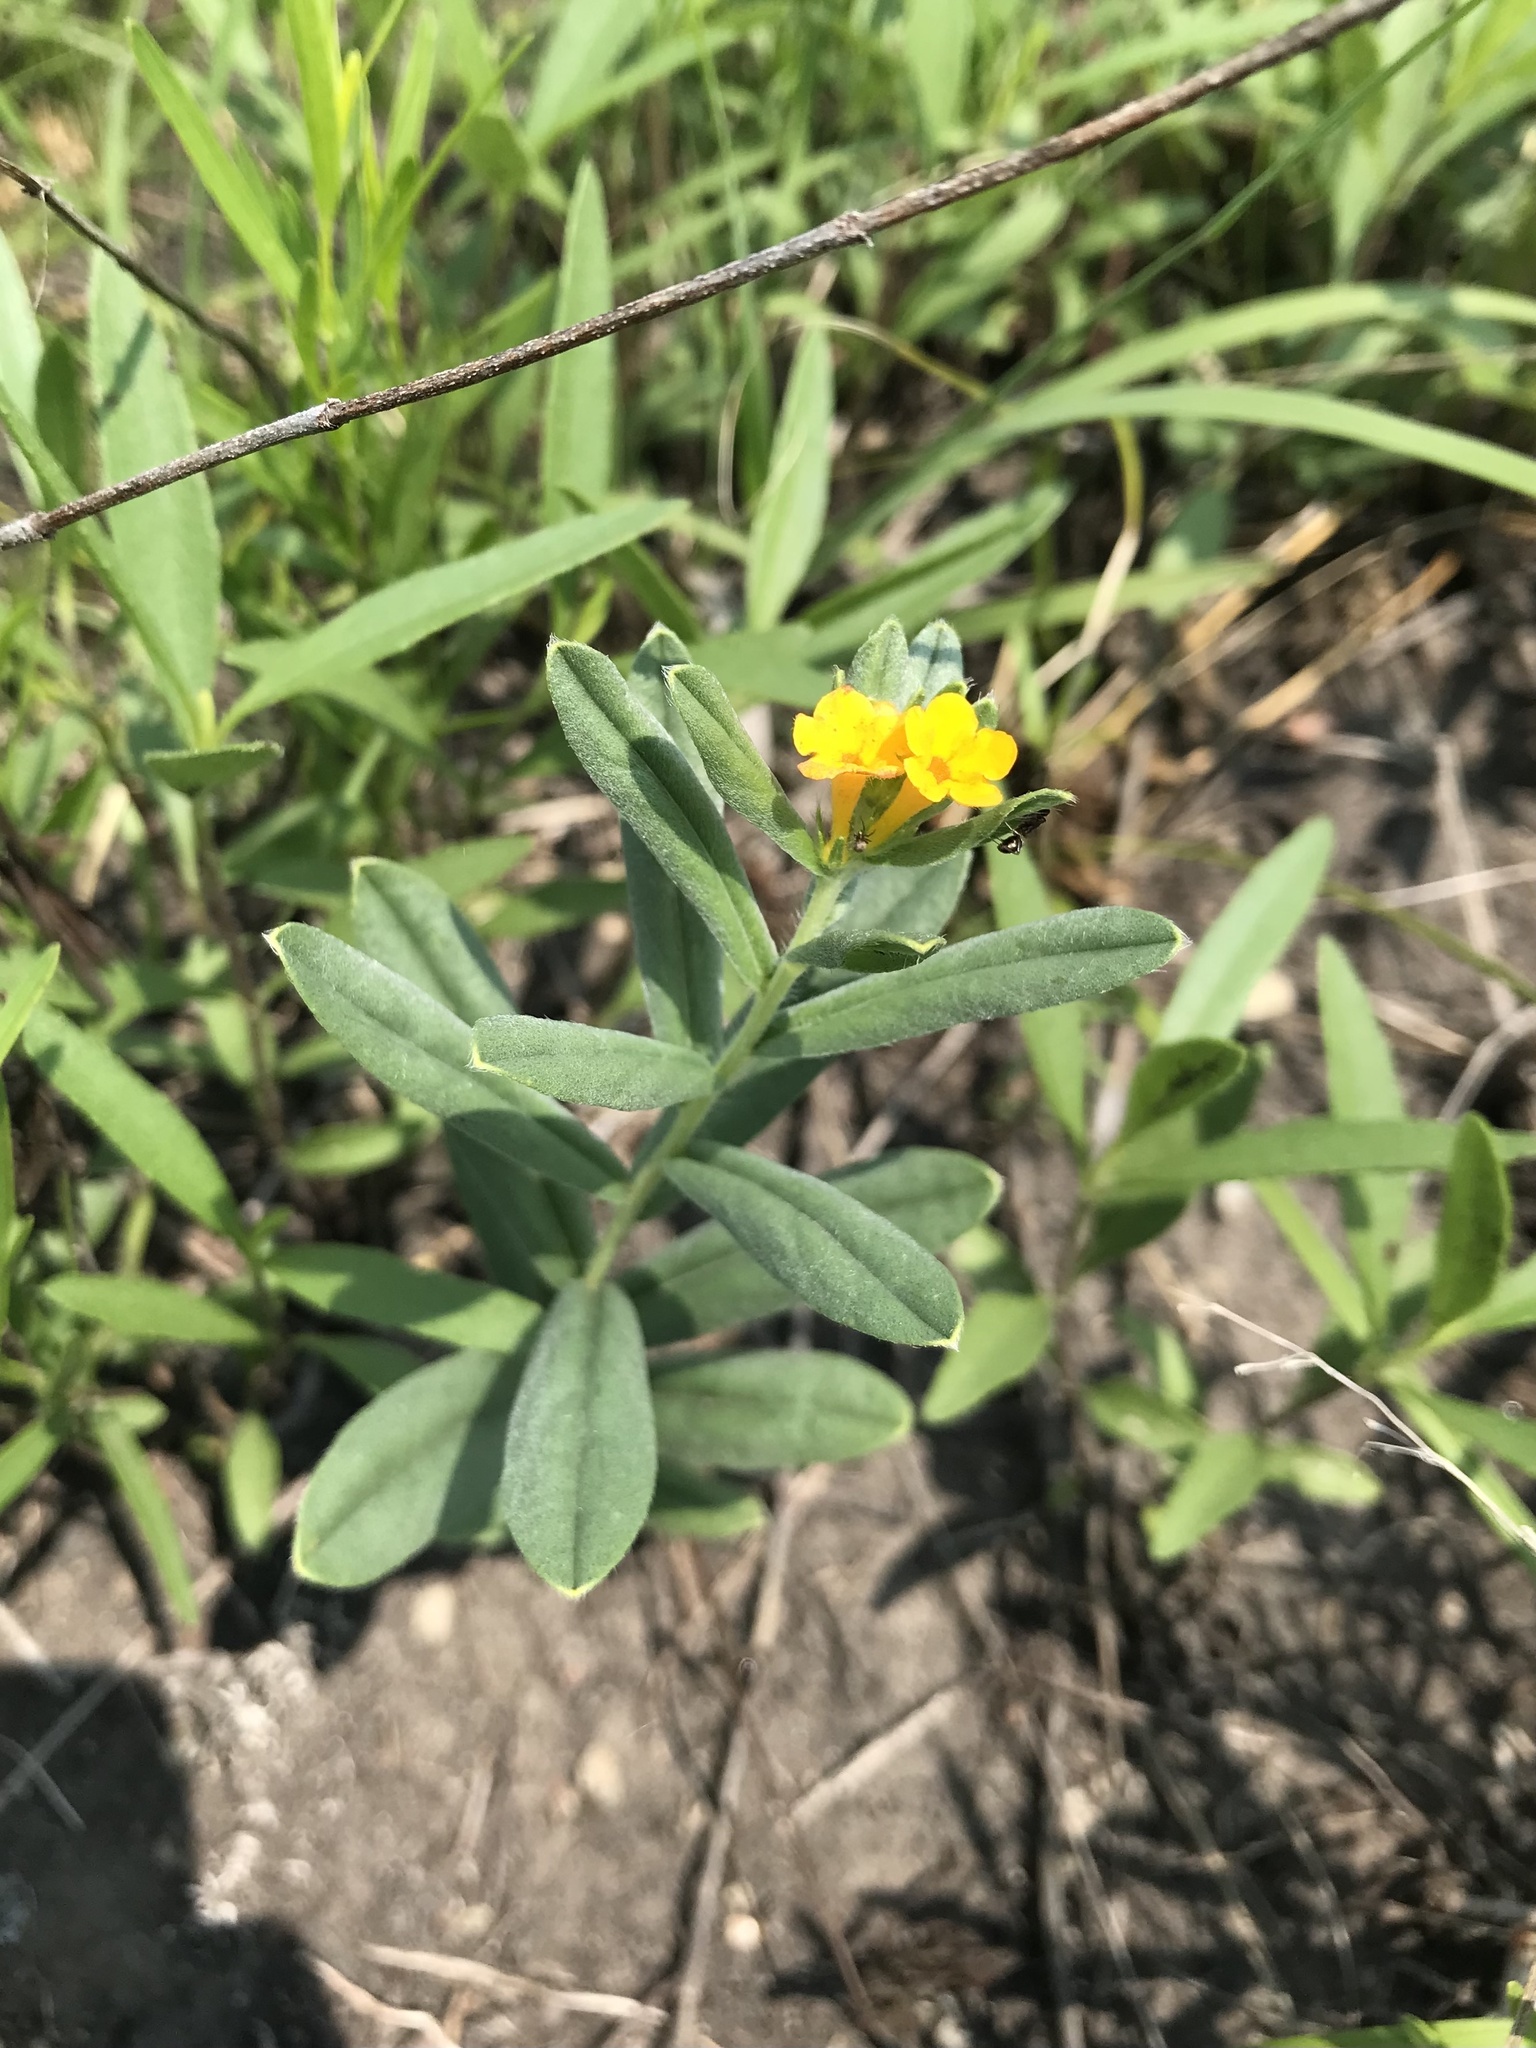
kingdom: Plantae
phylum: Tracheophyta
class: Magnoliopsida
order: Boraginales
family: Boraginaceae
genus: Lithospermum
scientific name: Lithospermum canescens
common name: Hoary puccoon
